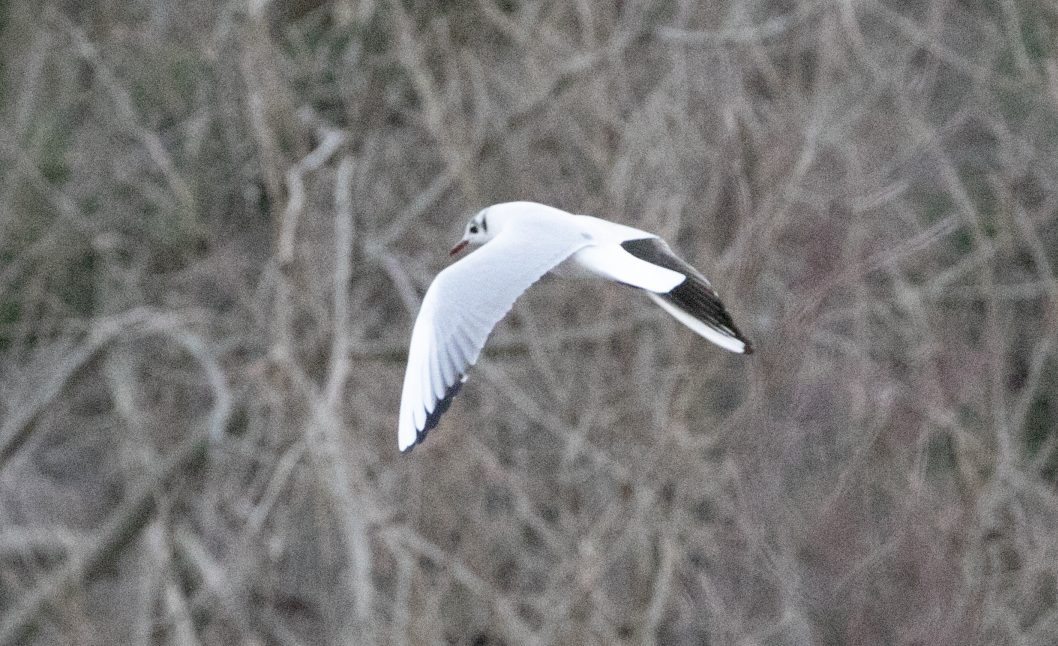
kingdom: Animalia
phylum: Chordata
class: Aves
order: Charadriiformes
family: Laridae
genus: Chroicocephalus
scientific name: Chroicocephalus ridibundus
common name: Black-headed gull
